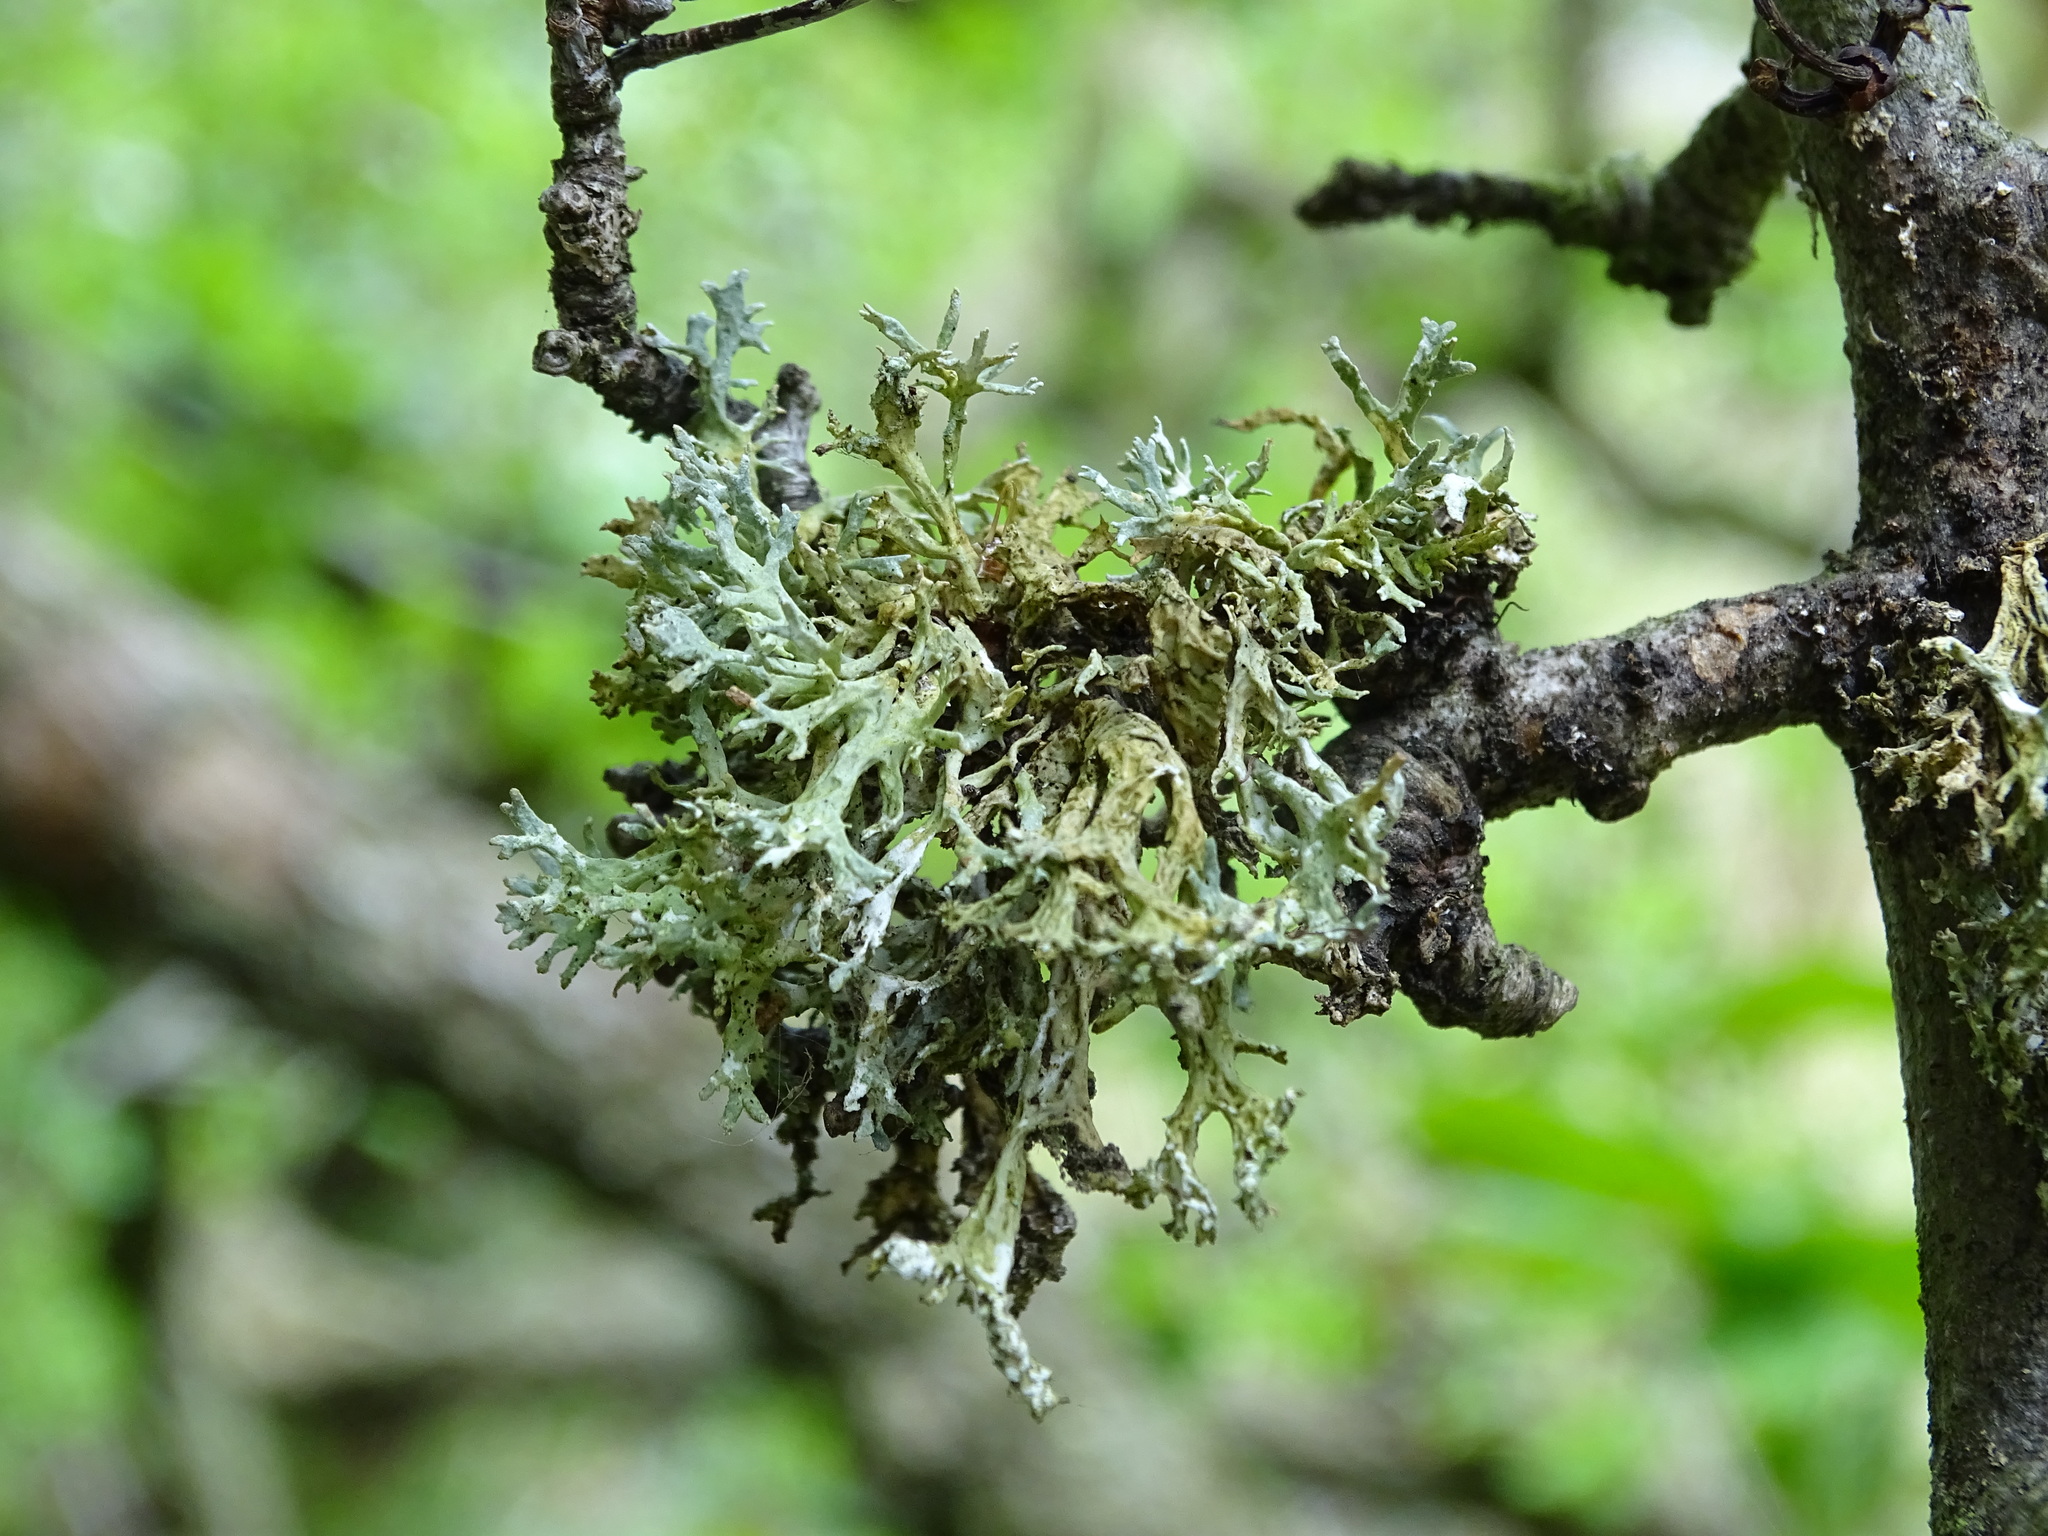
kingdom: Fungi
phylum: Ascomycota
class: Lecanoromycetes
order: Lecanorales
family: Parmeliaceae
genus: Evernia
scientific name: Evernia prunastri
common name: Oak moss
